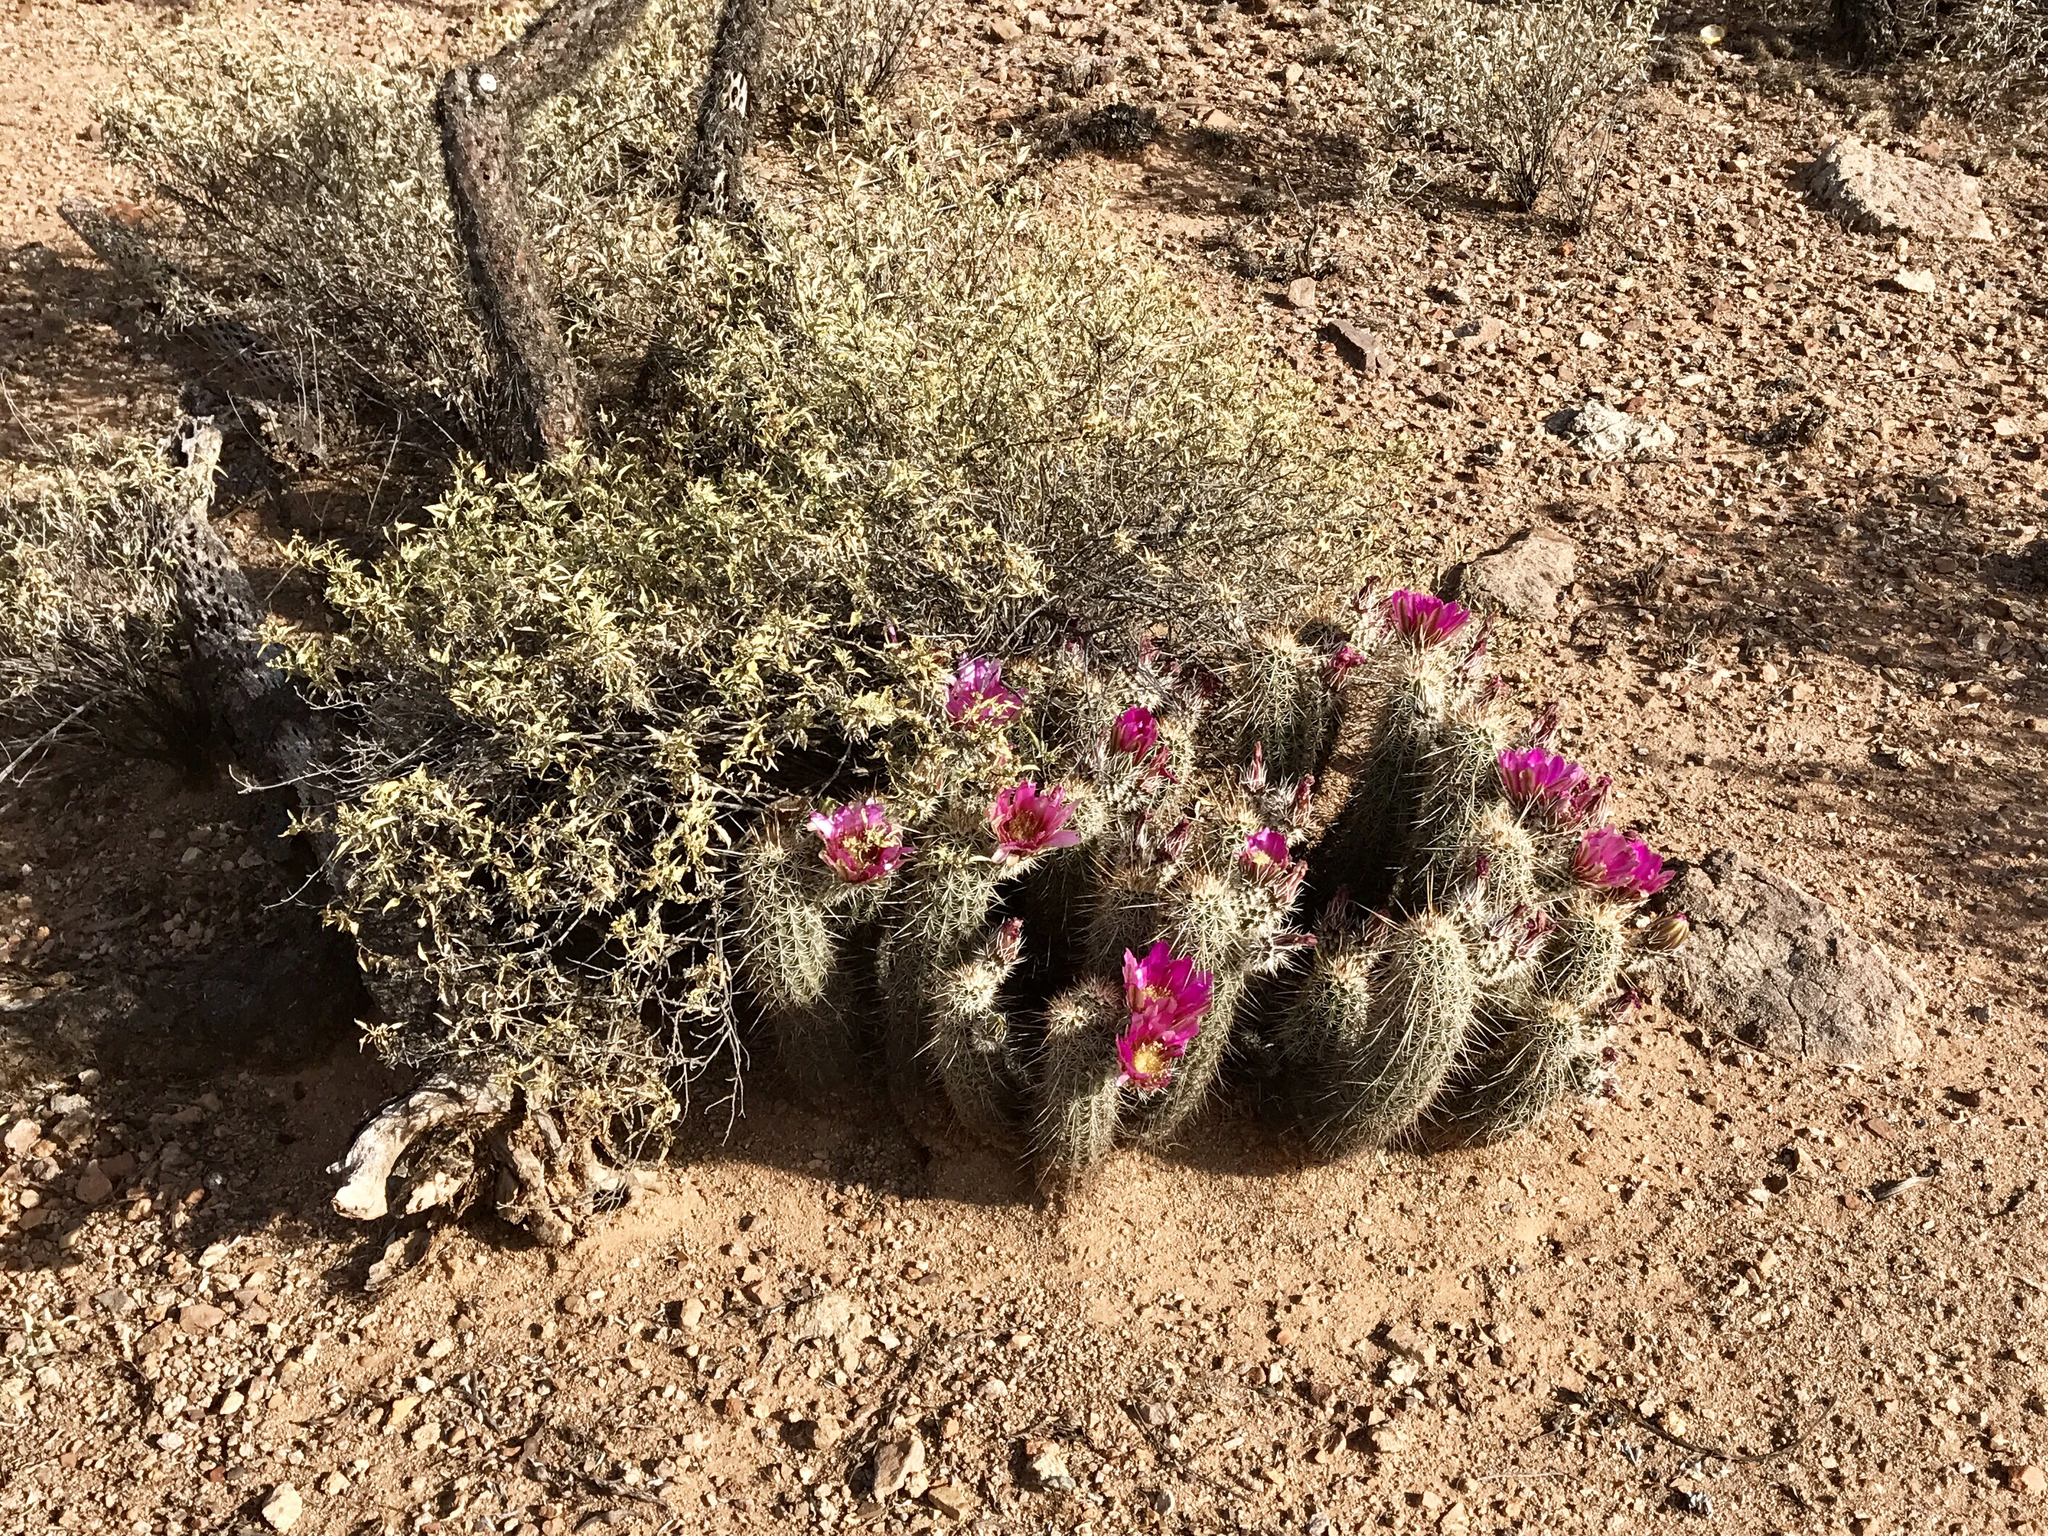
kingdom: Plantae
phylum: Tracheophyta
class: Magnoliopsida
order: Caryophyllales
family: Cactaceae
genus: Echinocereus
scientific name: Echinocereus fasciculatus
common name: Bundle hedgehog
